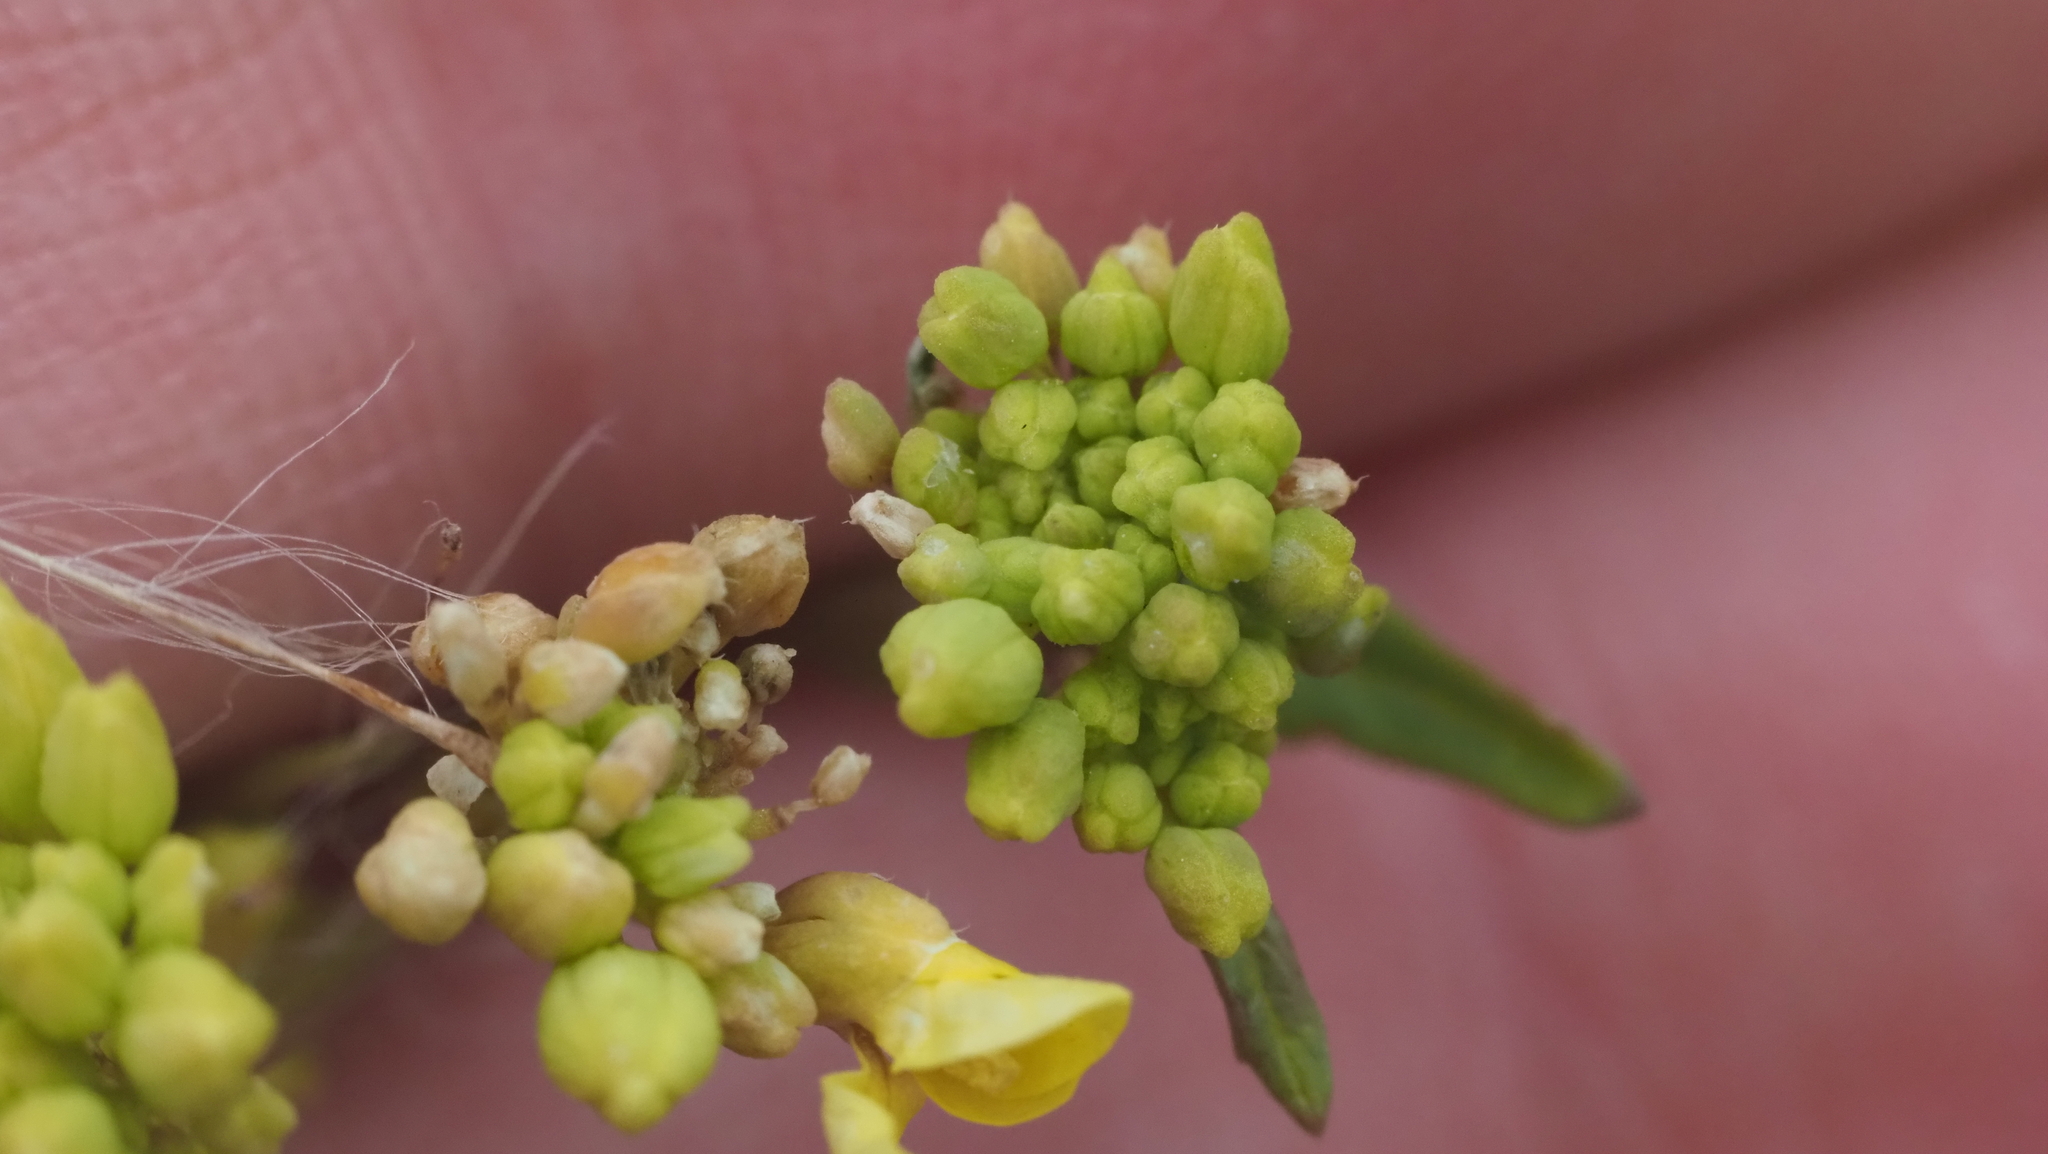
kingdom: Plantae
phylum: Tracheophyta
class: Magnoliopsida
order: Brassicales
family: Brassicaceae
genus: Rapistrum
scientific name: Rapistrum rugosum
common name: Annual bastardcabbage
